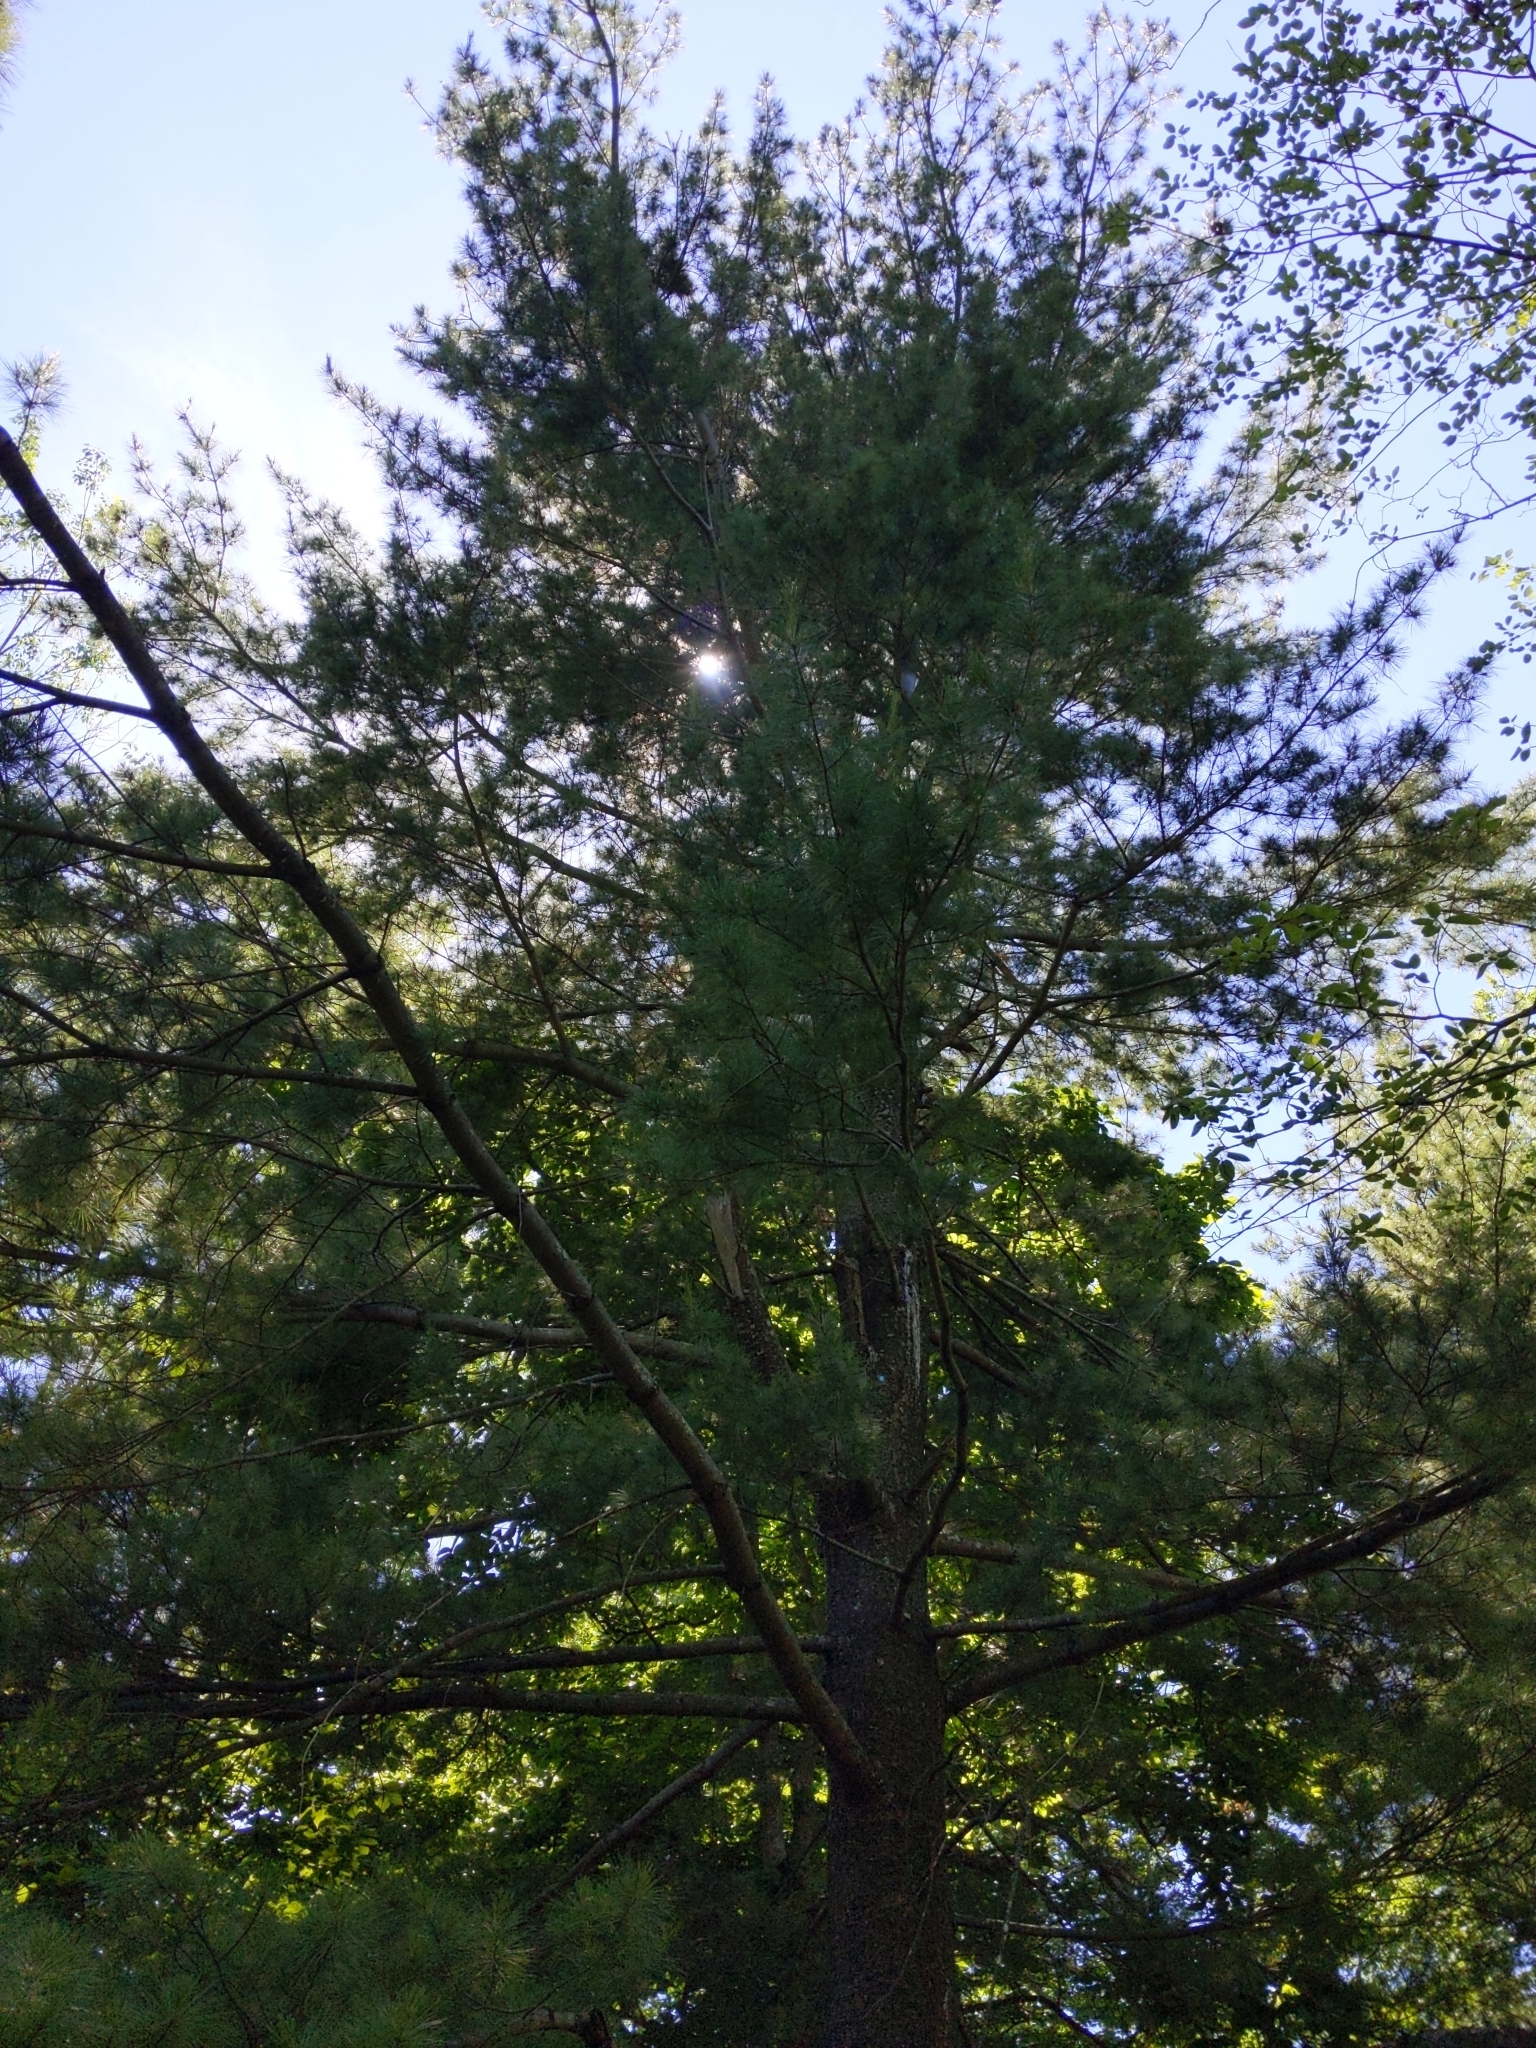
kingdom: Plantae
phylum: Tracheophyta
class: Pinopsida
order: Pinales
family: Pinaceae
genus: Pinus
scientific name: Pinus strobus
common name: Weymouth pine
